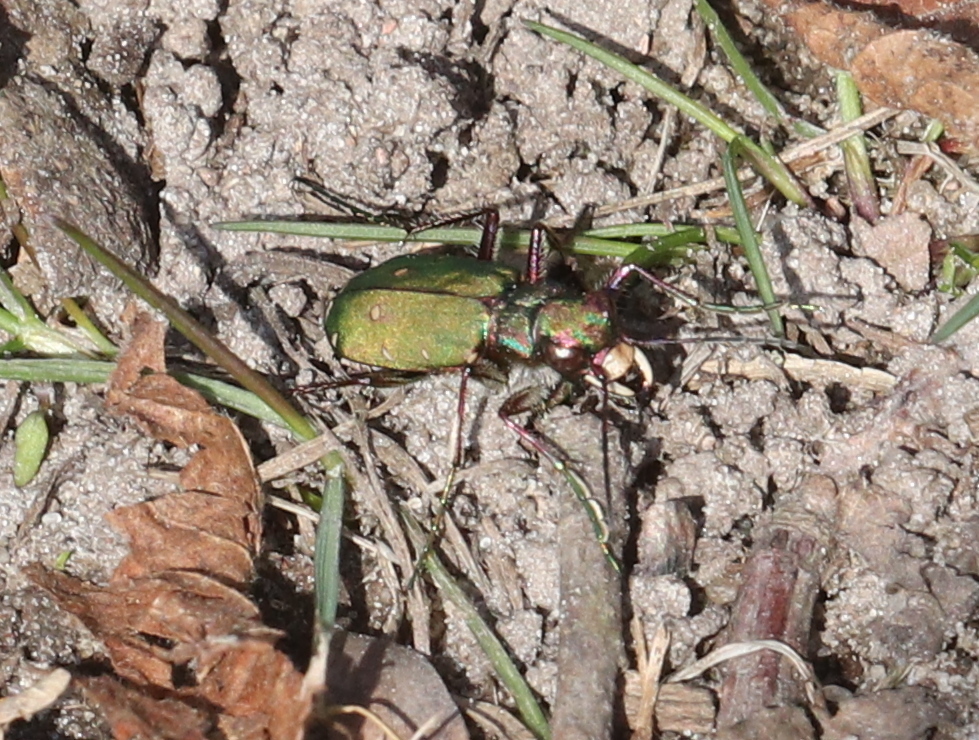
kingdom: Animalia
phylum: Arthropoda
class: Insecta
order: Coleoptera
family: Carabidae
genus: Cicindela
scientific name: Cicindela campestris
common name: Common tiger beetle
